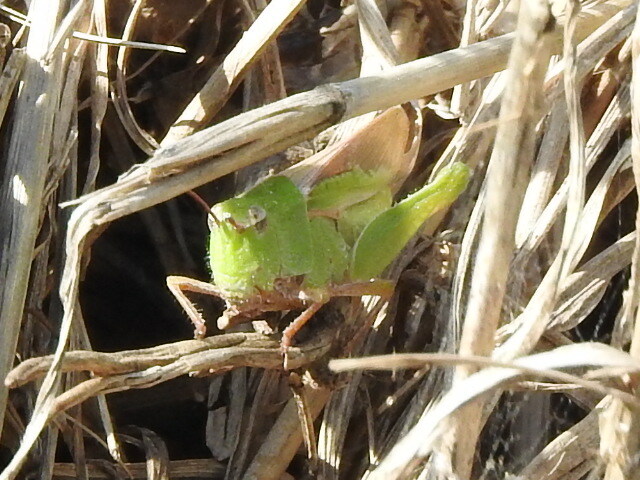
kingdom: Animalia
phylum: Arthropoda
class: Insecta
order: Orthoptera
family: Acrididae
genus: Chortophaga
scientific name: Chortophaga viridifasciata
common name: Green-striped grasshopper
